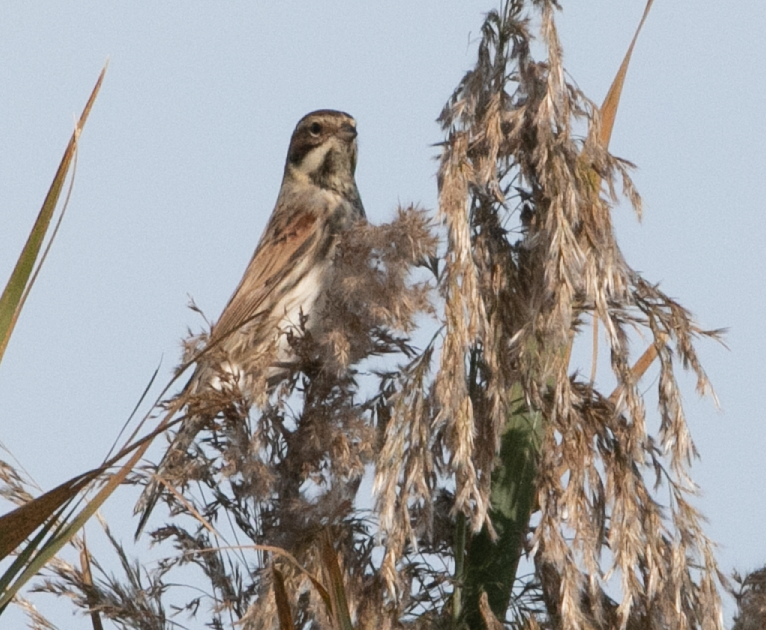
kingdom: Animalia
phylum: Chordata
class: Aves
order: Passeriformes
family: Emberizidae
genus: Emberiza
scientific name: Emberiza schoeniclus
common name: Reed bunting
